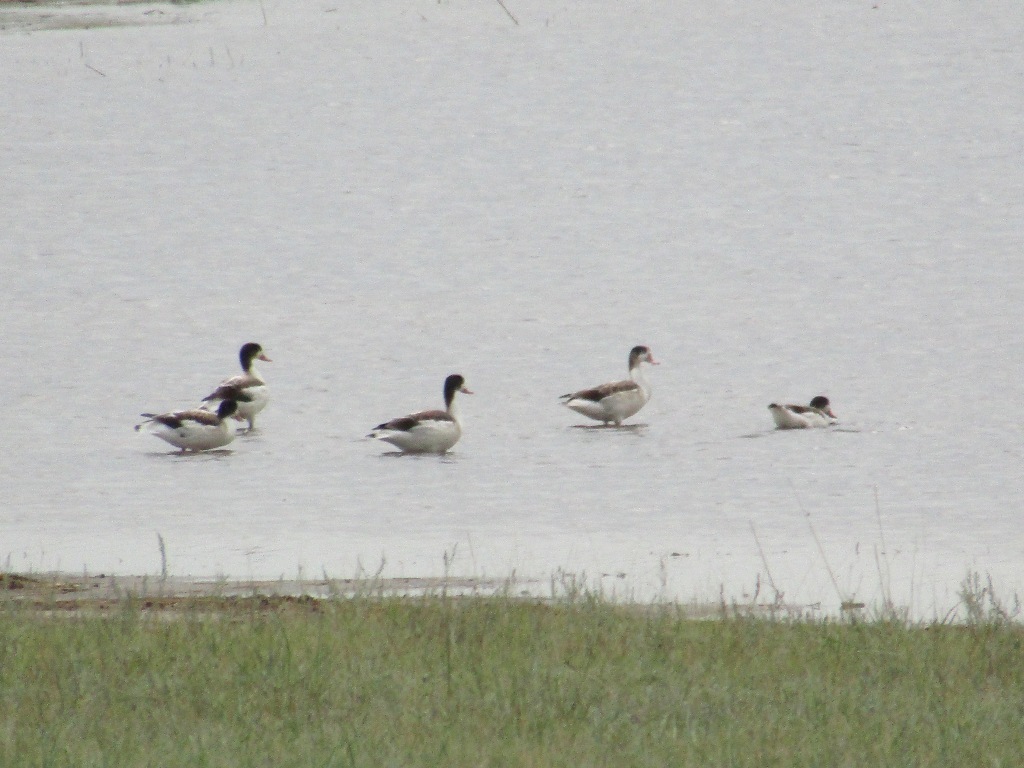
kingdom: Animalia
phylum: Chordata
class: Aves
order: Anseriformes
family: Anatidae
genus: Tadorna
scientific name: Tadorna tadorna
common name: Common shelduck
